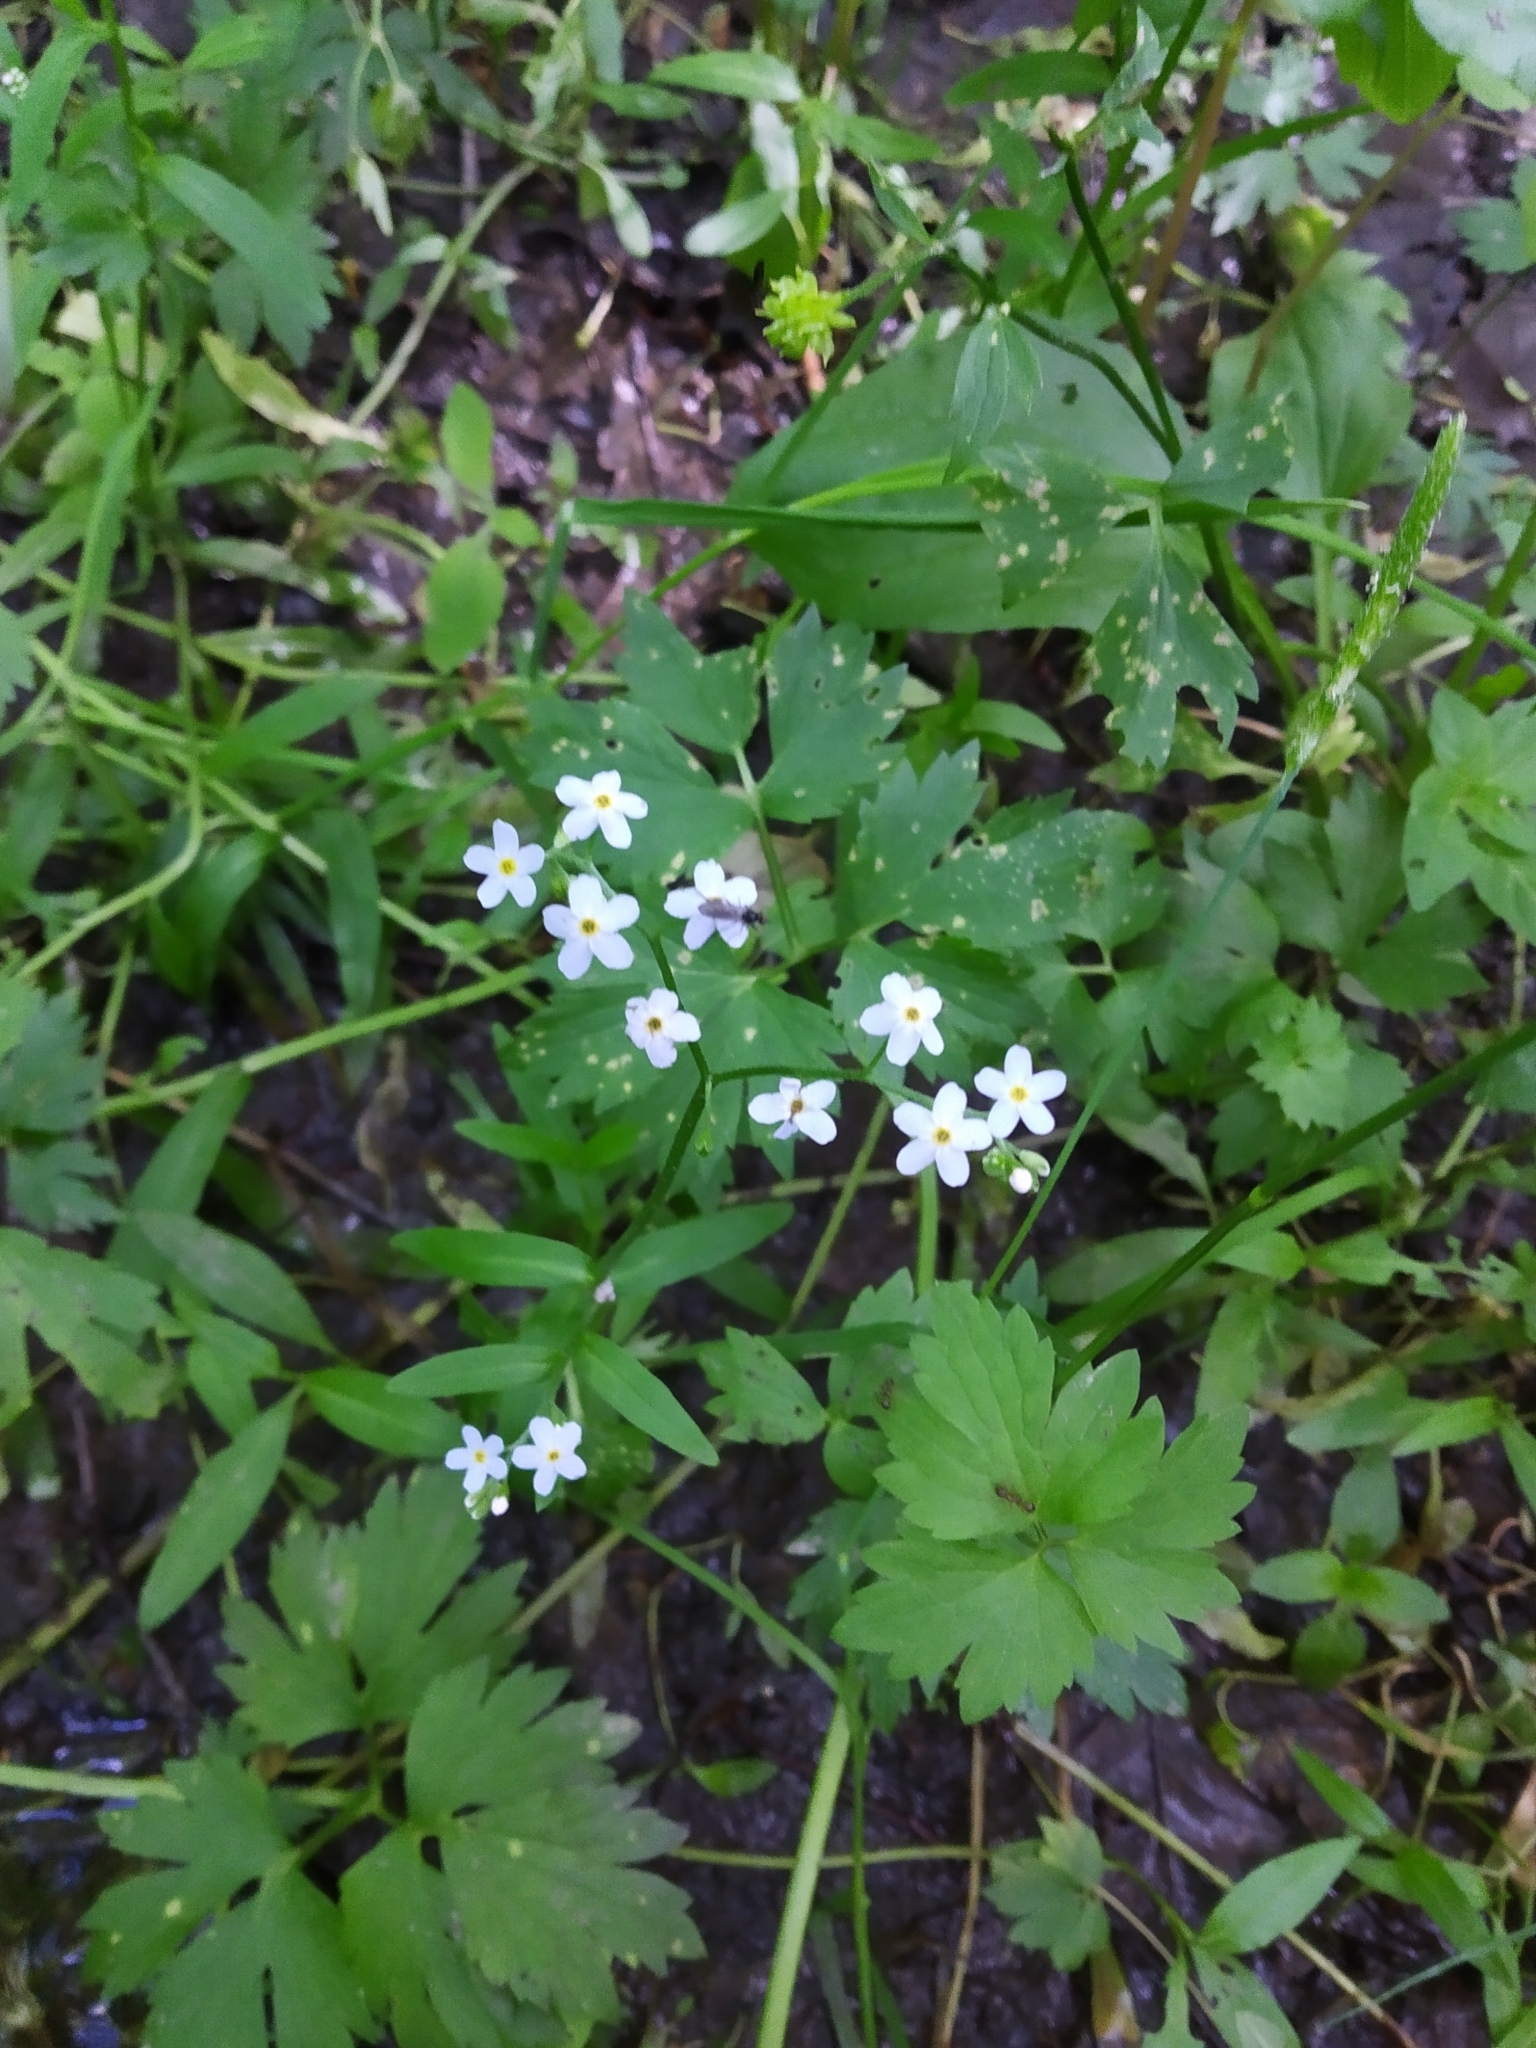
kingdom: Plantae
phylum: Tracheophyta
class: Magnoliopsida
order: Boraginales
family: Boraginaceae
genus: Myosotis
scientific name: Myosotis scorpioides
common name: Water forget-me-not
